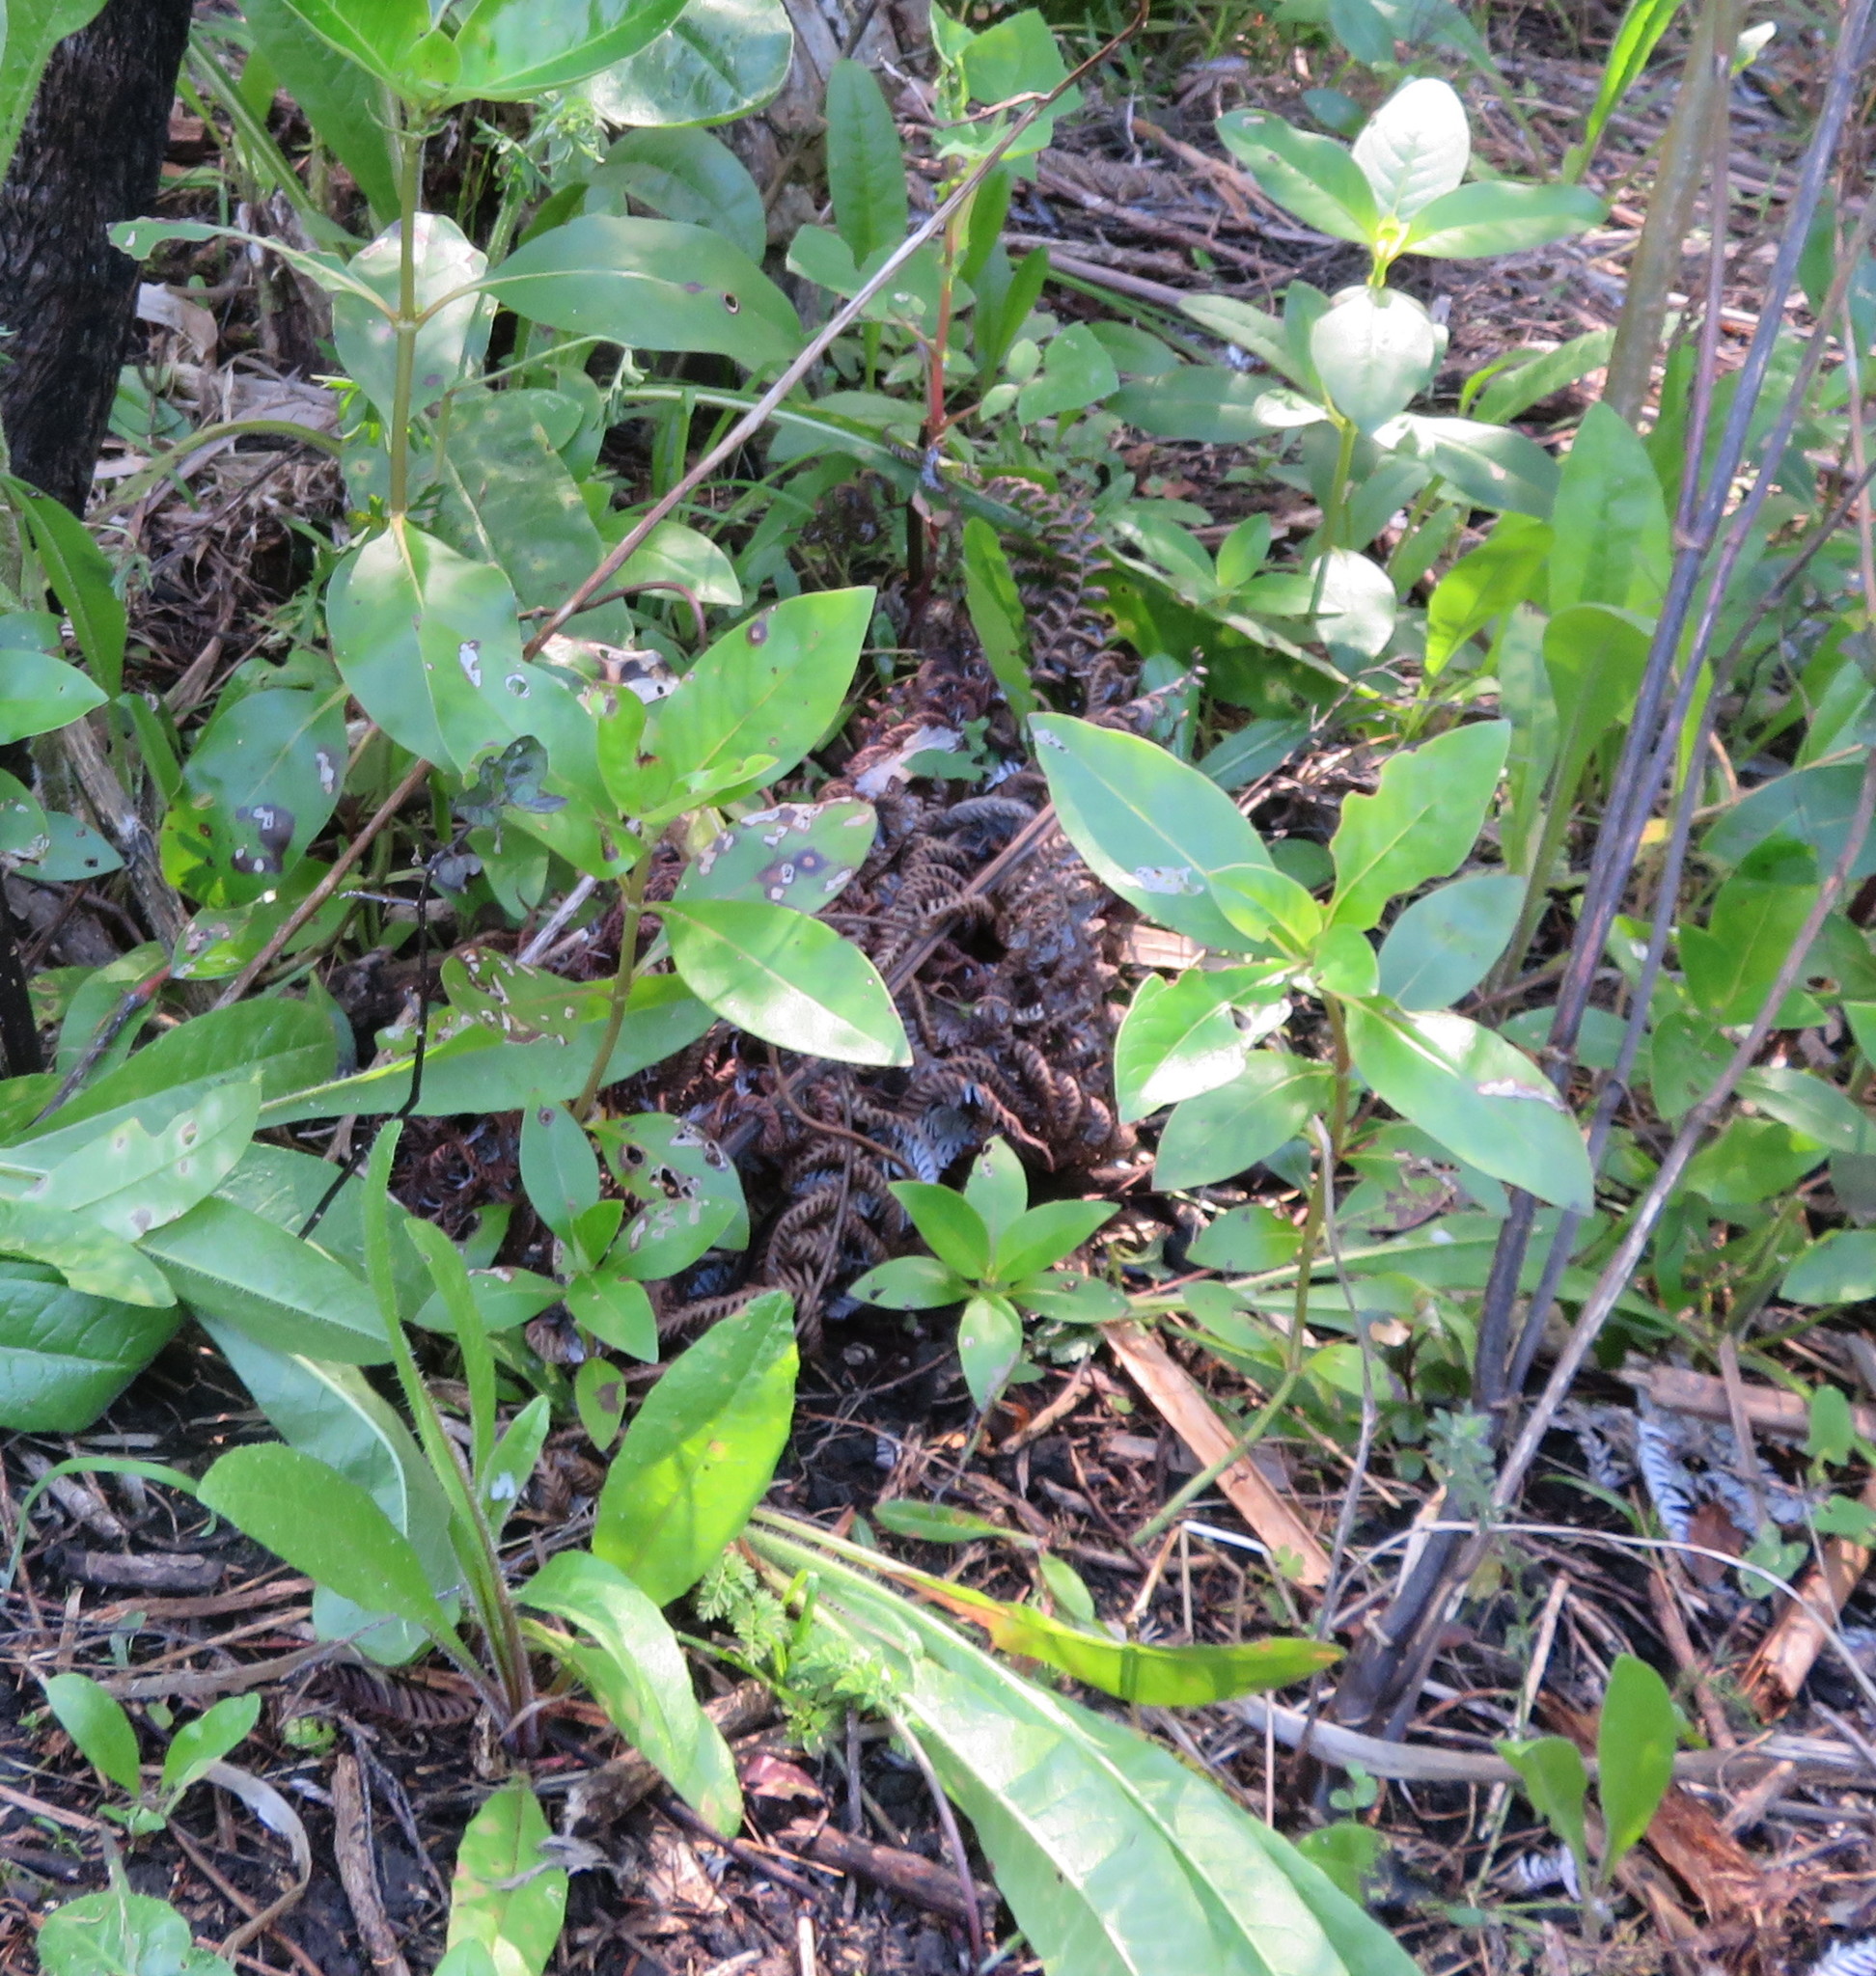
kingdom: Plantae
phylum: Tracheophyta
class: Magnoliopsida
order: Gentianales
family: Rubiaceae
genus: Coprosma
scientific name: Coprosma robusta
